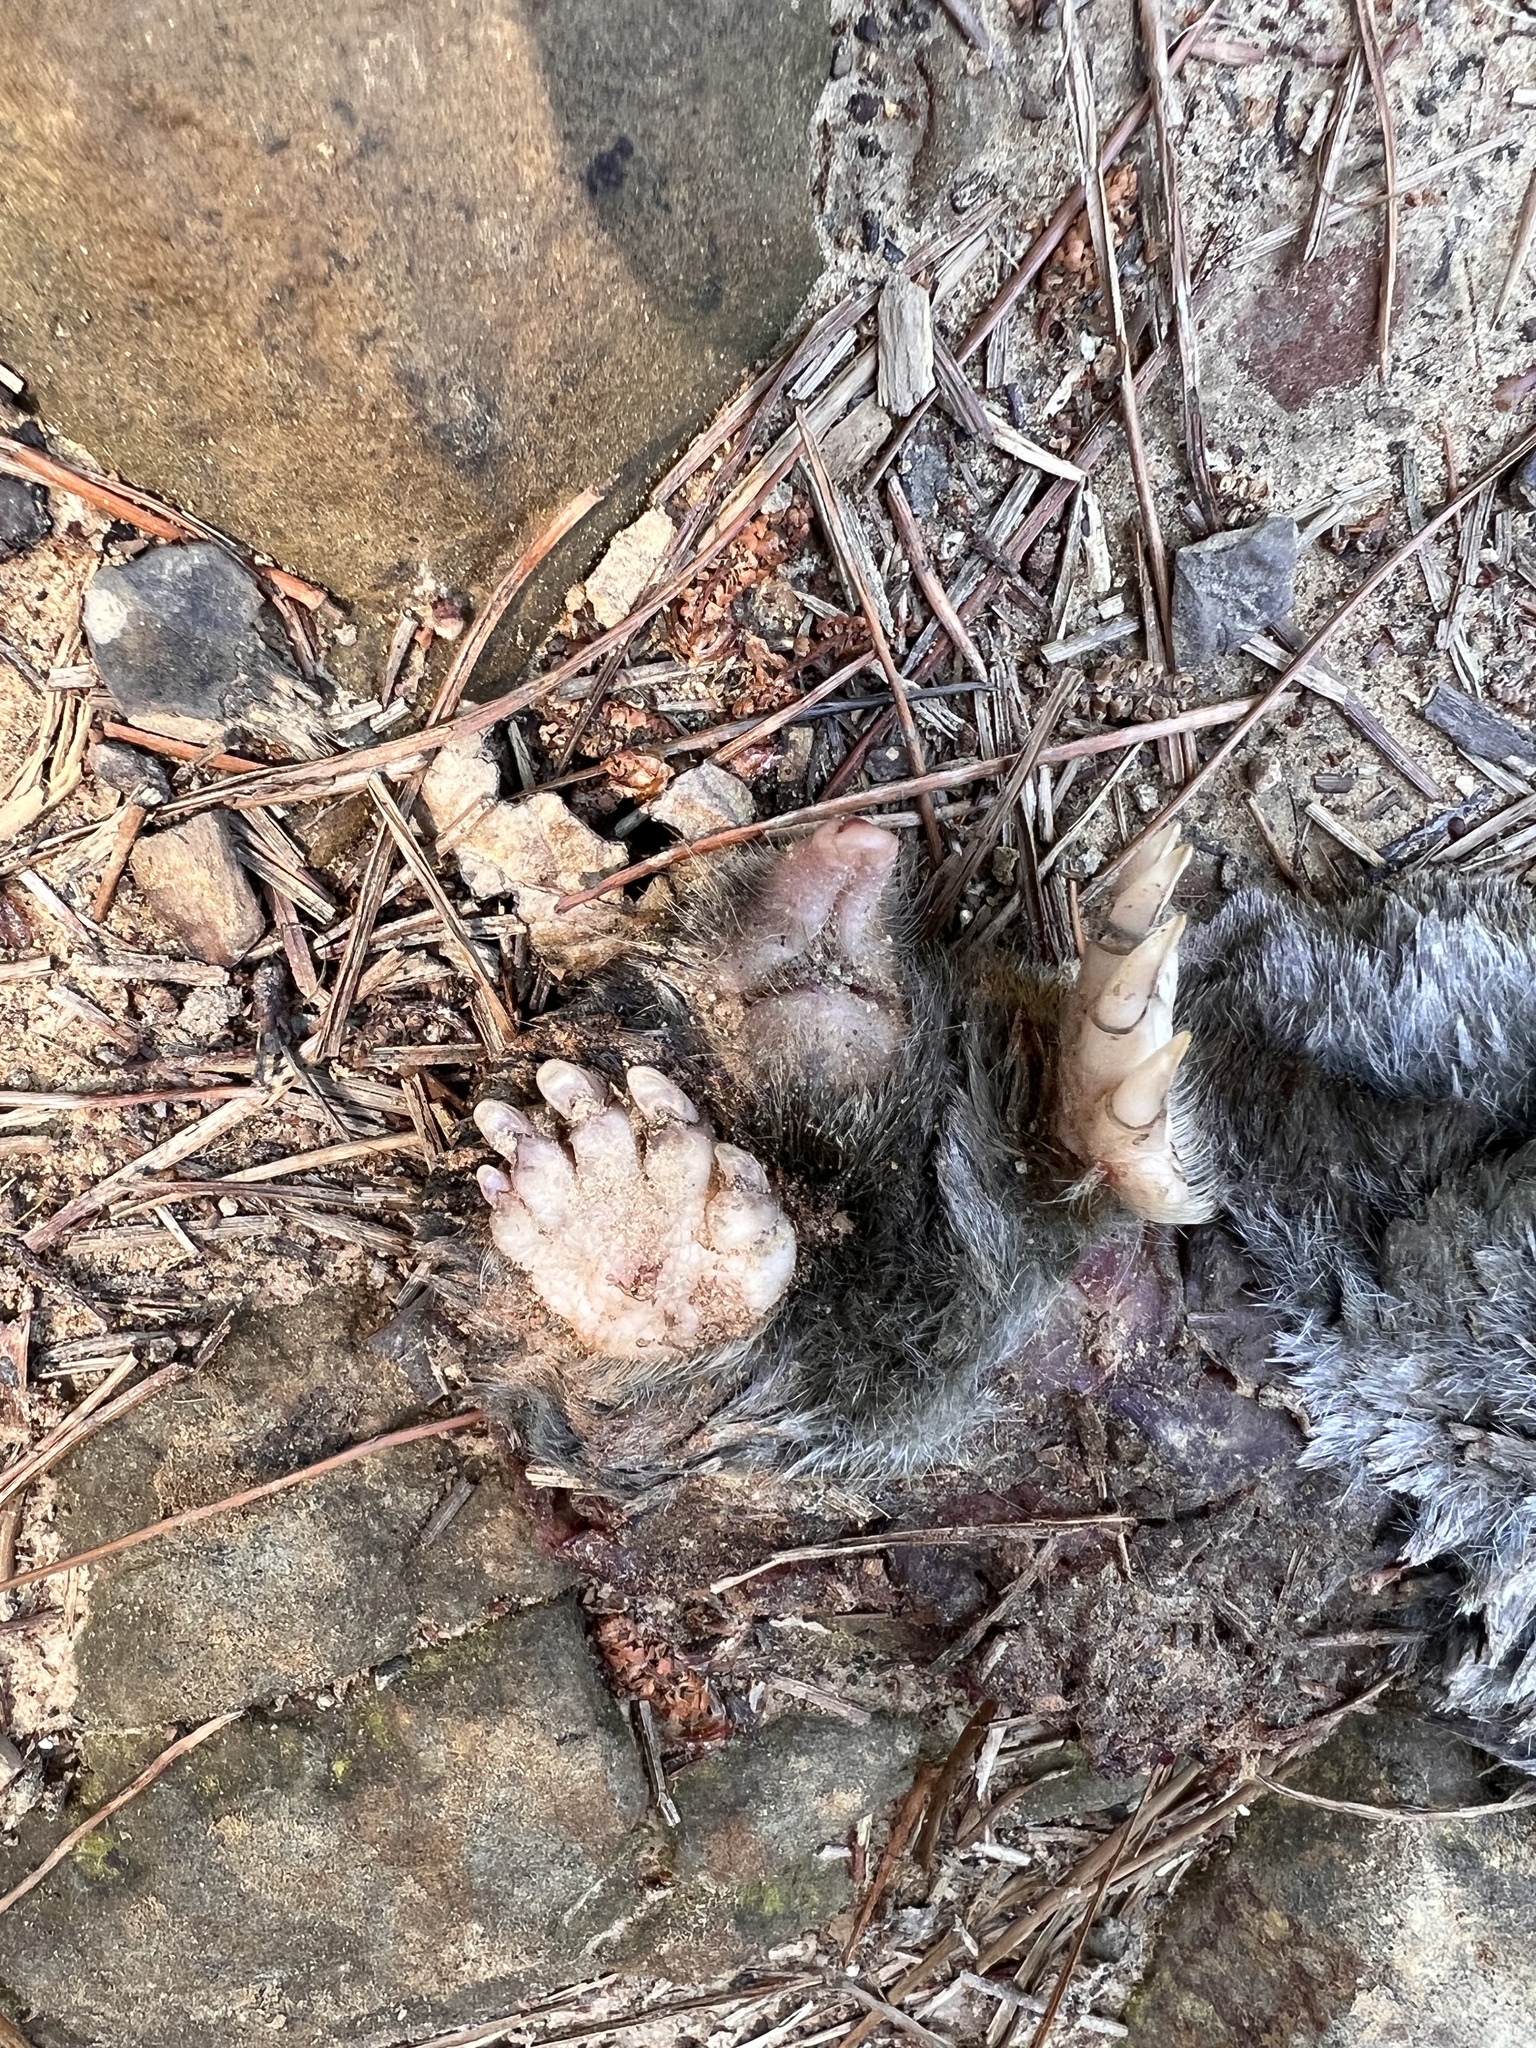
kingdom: Animalia
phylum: Chordata
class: Mammalia
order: Soricomorpha
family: Talpidae
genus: Scapanus
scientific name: Scapanus latimanus
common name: Broad-footed mole
